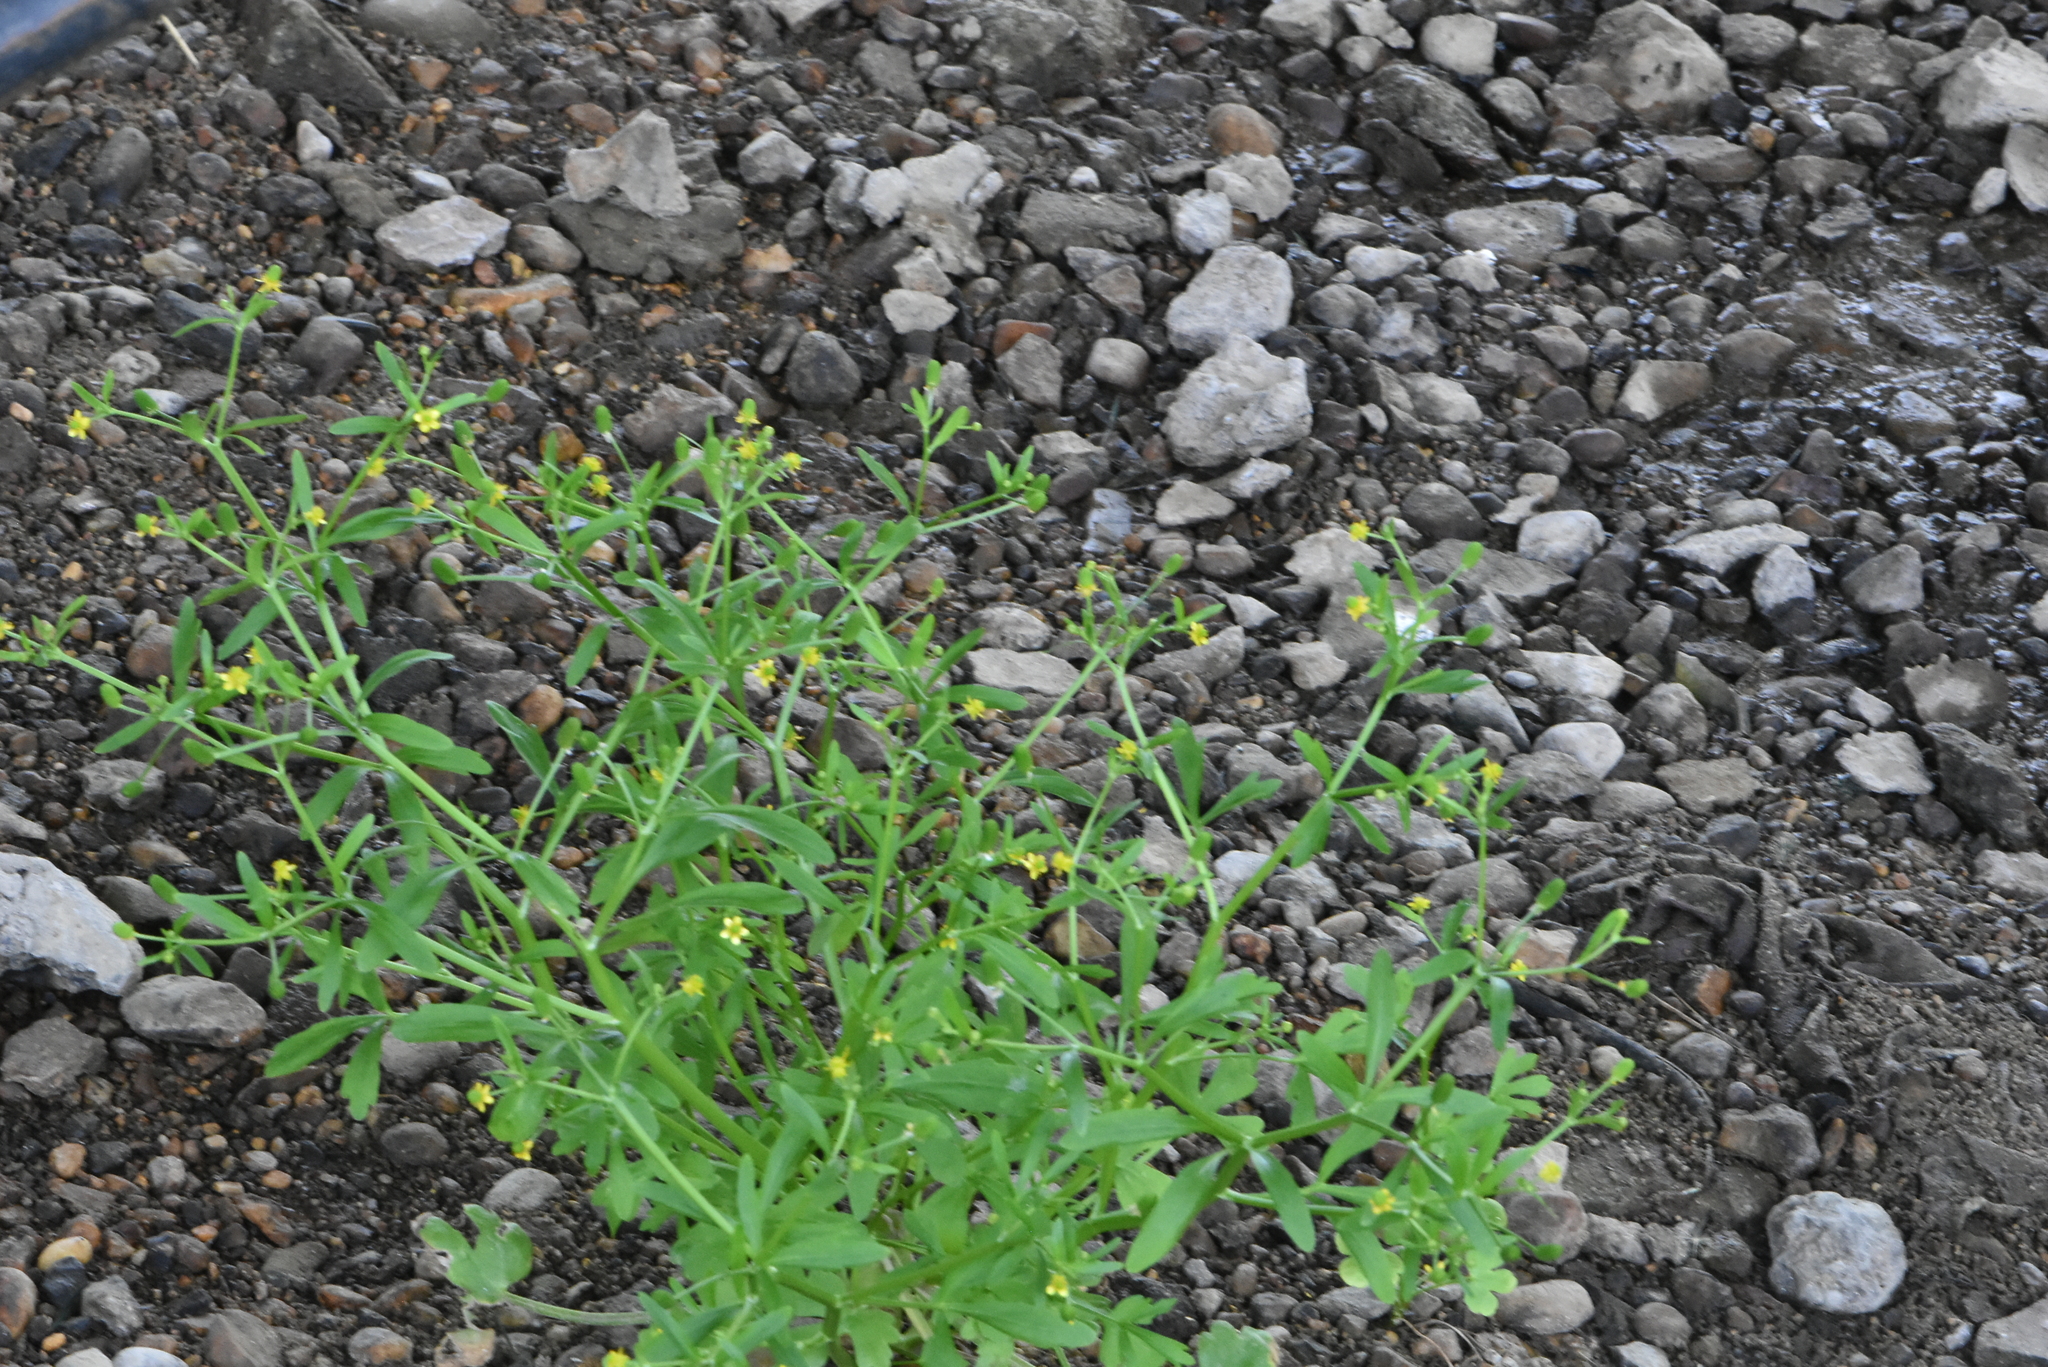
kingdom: Plantae
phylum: Tracheophyta
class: Magnoliopsida
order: Ranunculales
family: Ranunculaceae
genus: Ranunculus
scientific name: Ranunculus sceleratus
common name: Celery-leaved buttercup
